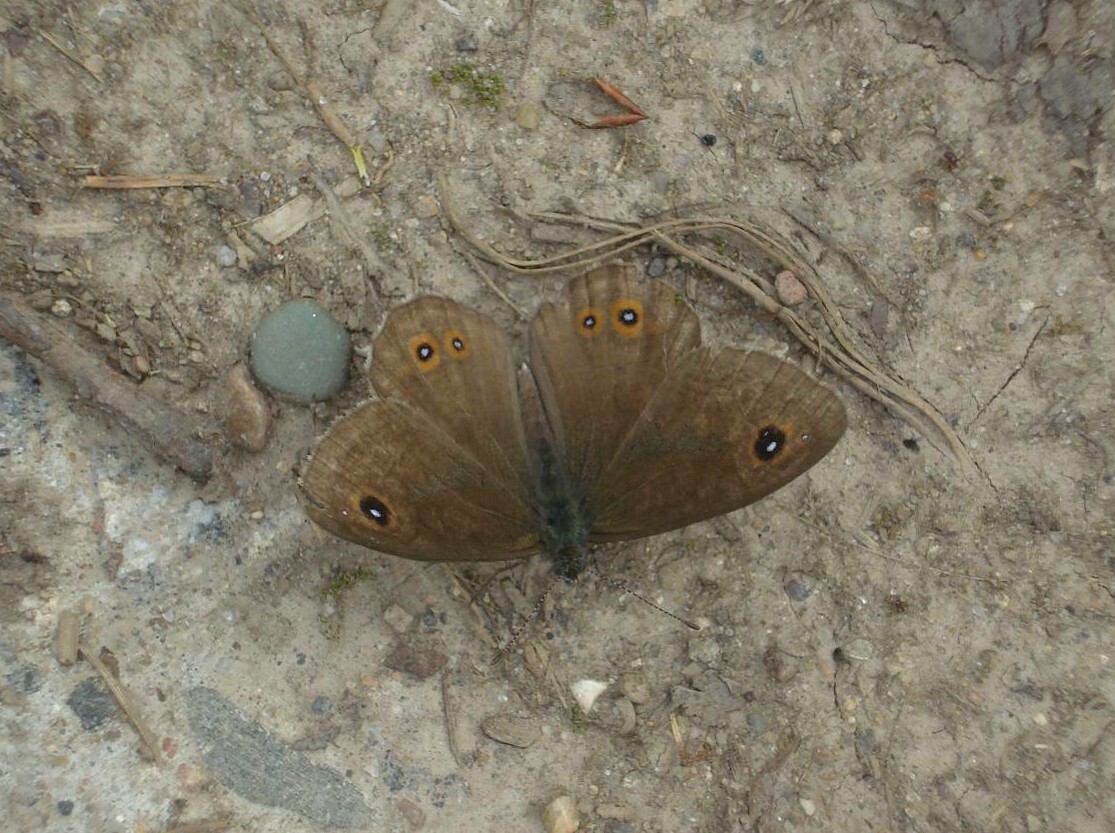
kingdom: Animalia
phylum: Arthropoda
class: Insecta
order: Lepidoptera
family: Nymphalidae
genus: Pararge
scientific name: Pararge Lasiommata maera
